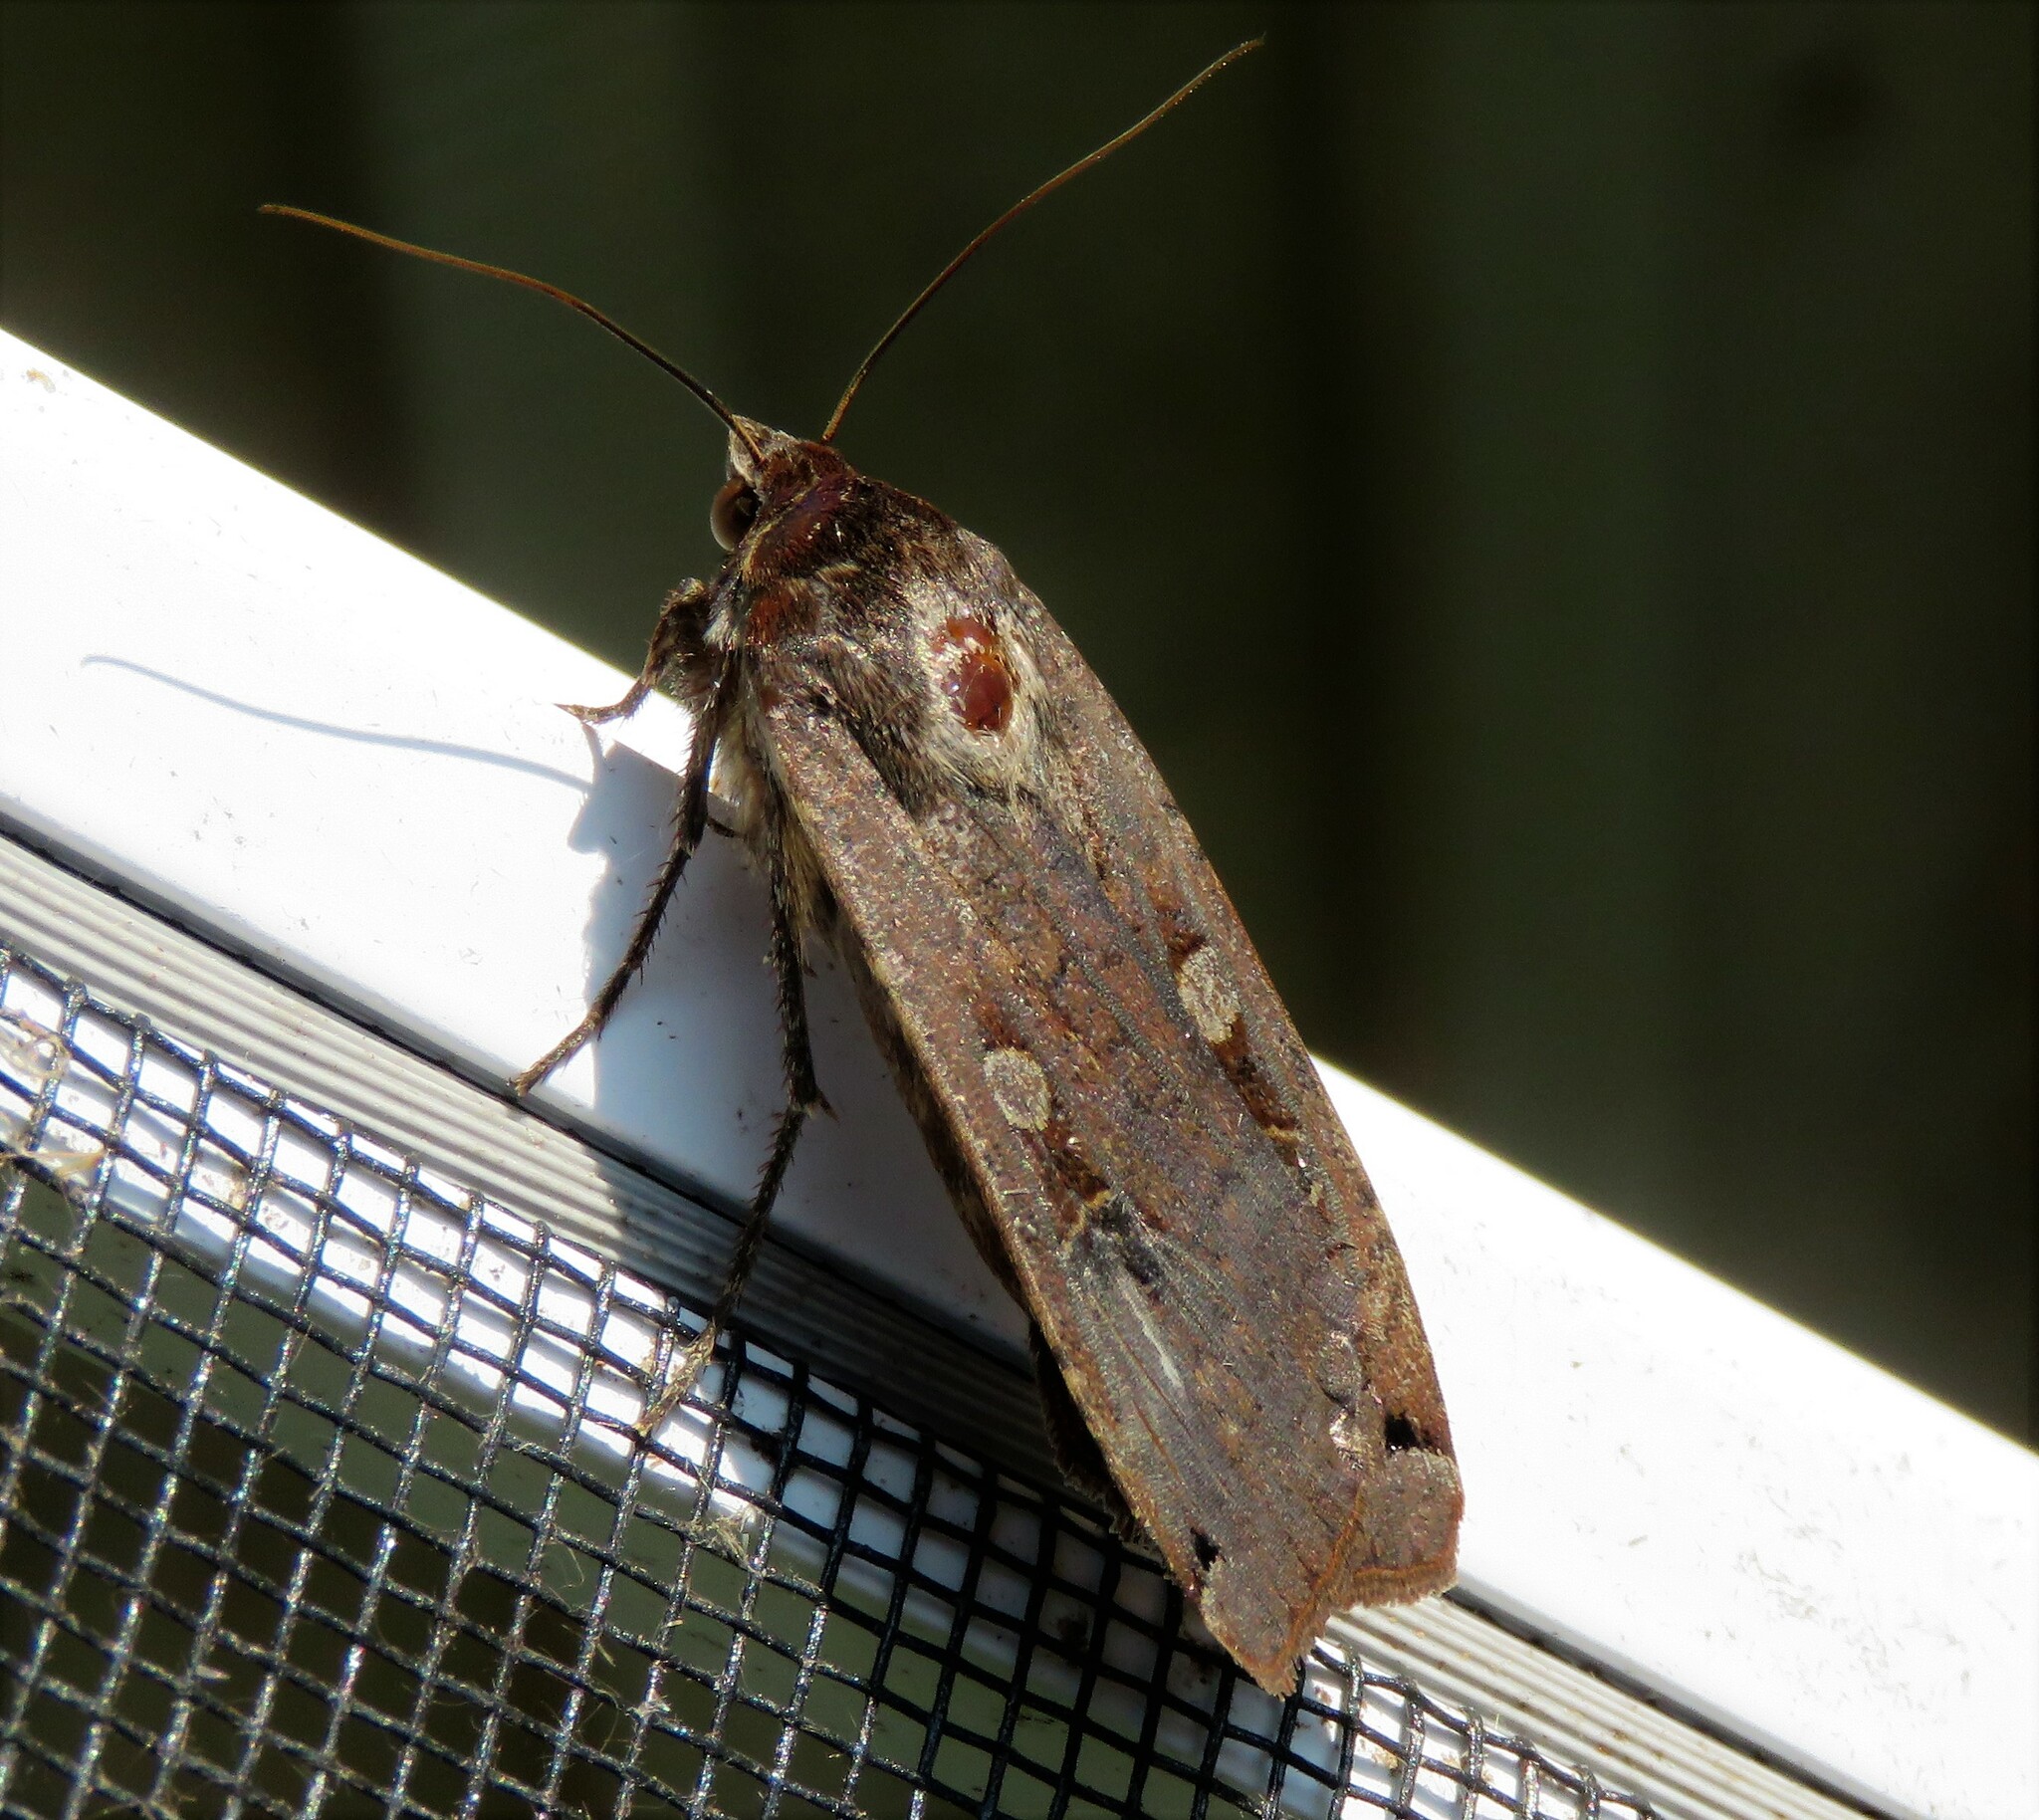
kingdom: Animalia
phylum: Arthropoda
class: Insecta
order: Lepidoptera
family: Noctuidae
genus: Noctua
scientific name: Noctua pronuba
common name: Large yellow underwing
